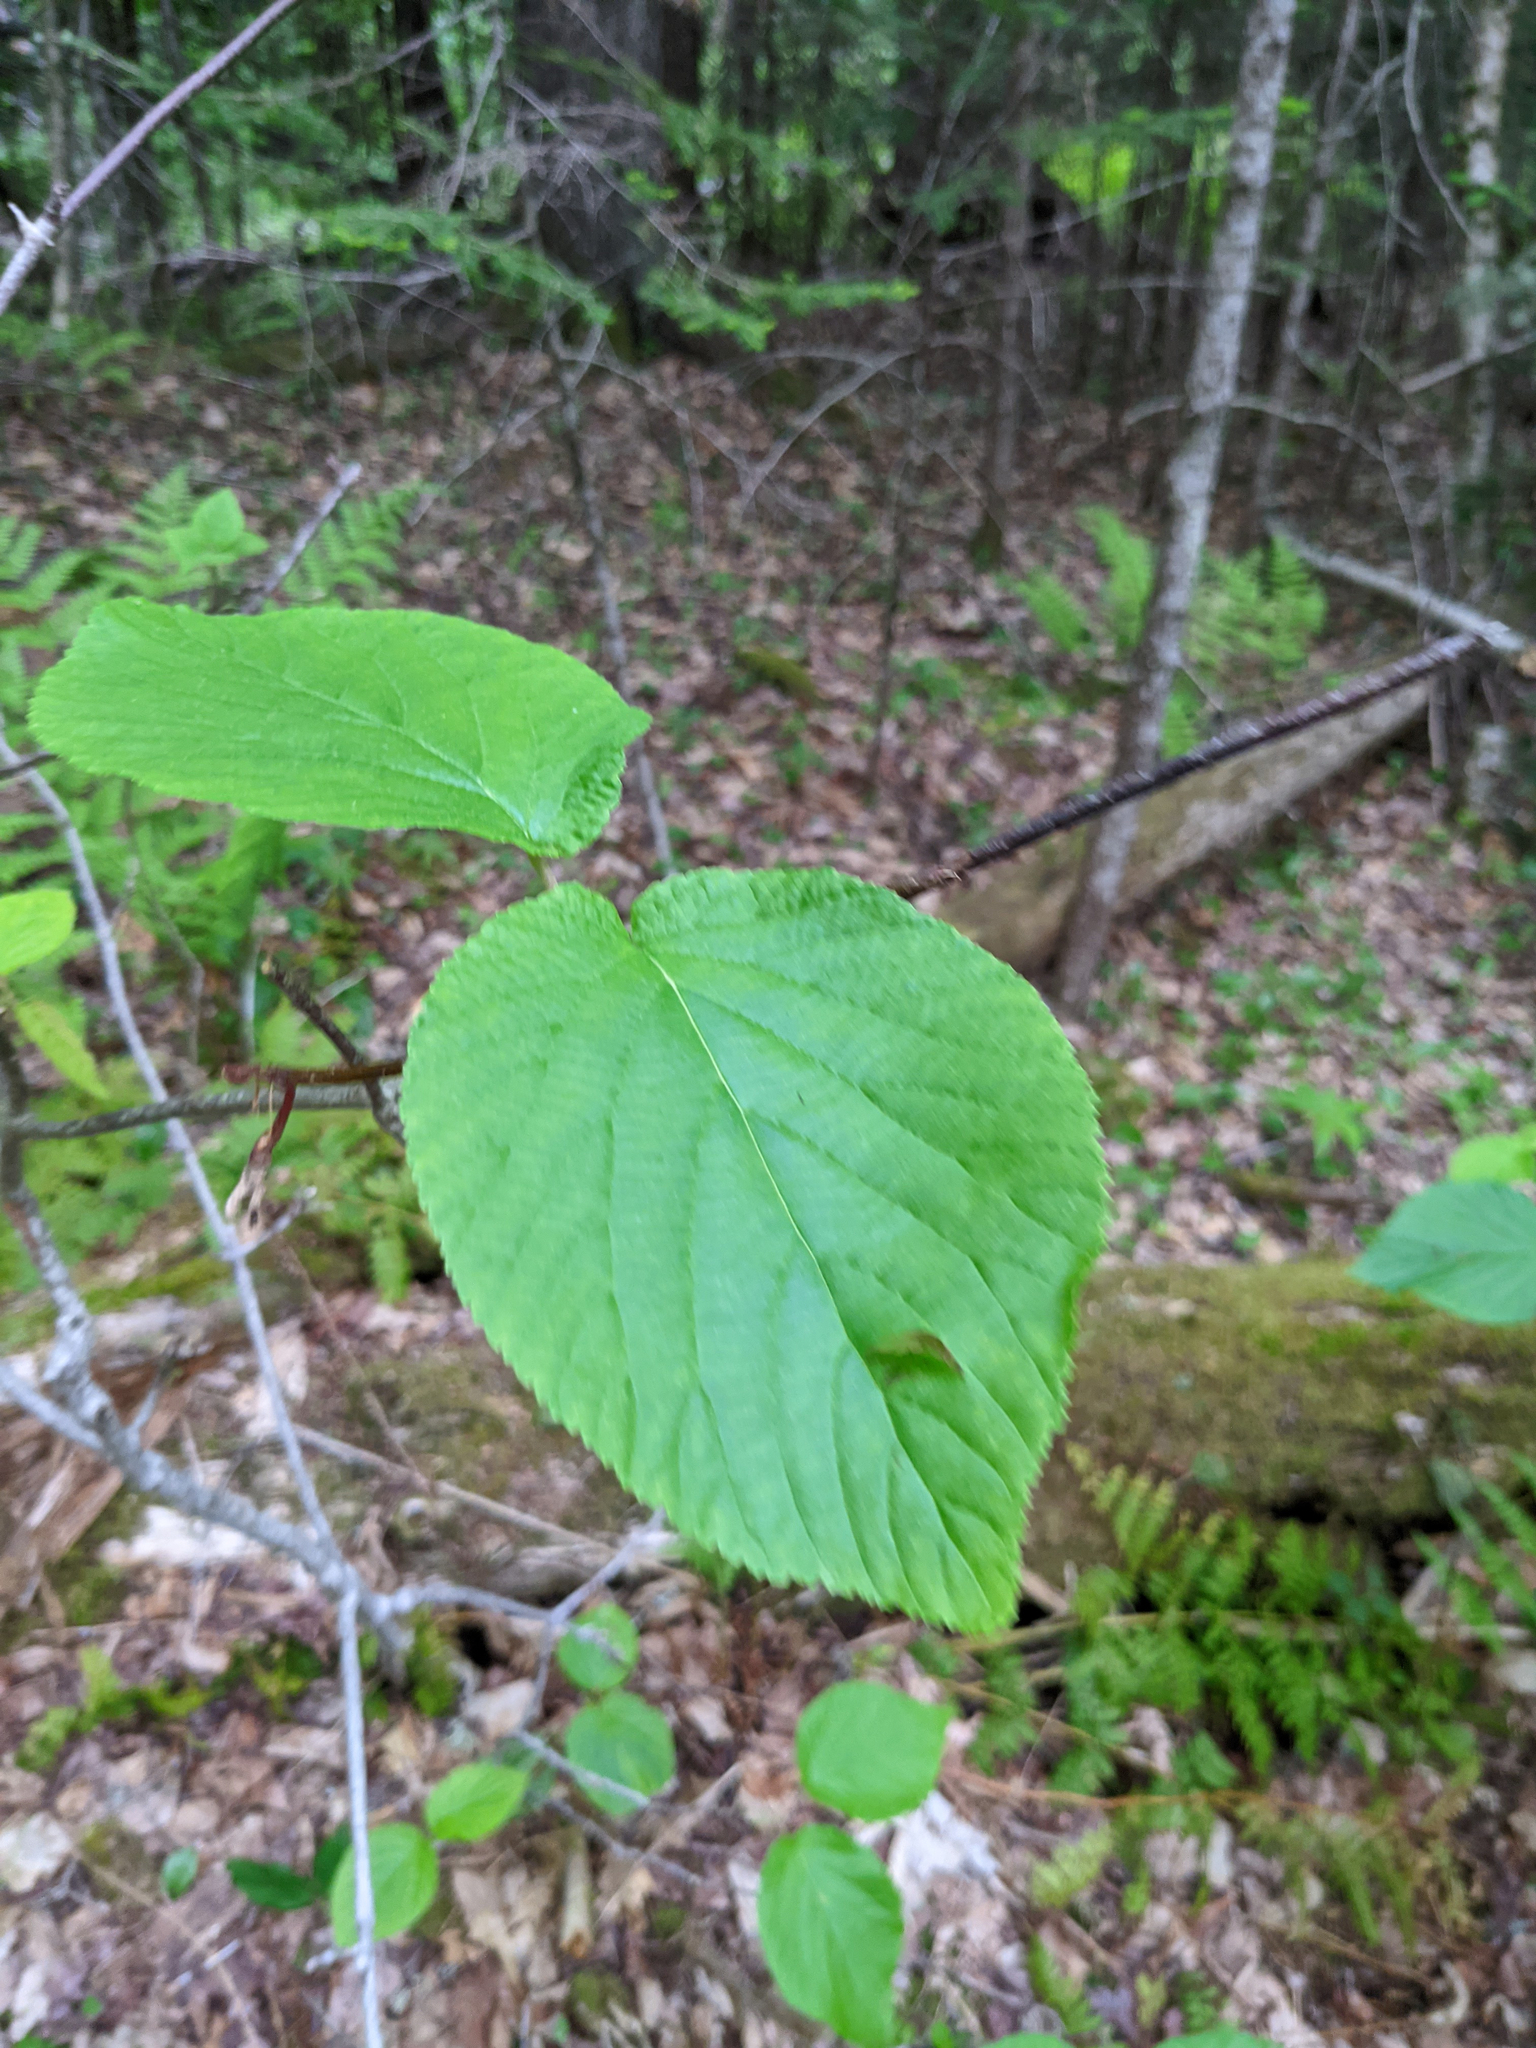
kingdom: Plantae
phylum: Tracheophyta
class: Magnoliopsida
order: Dipsacales
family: Viburnaceae
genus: Viburnum
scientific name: Viburnum lantanoides
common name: Hobblebush
